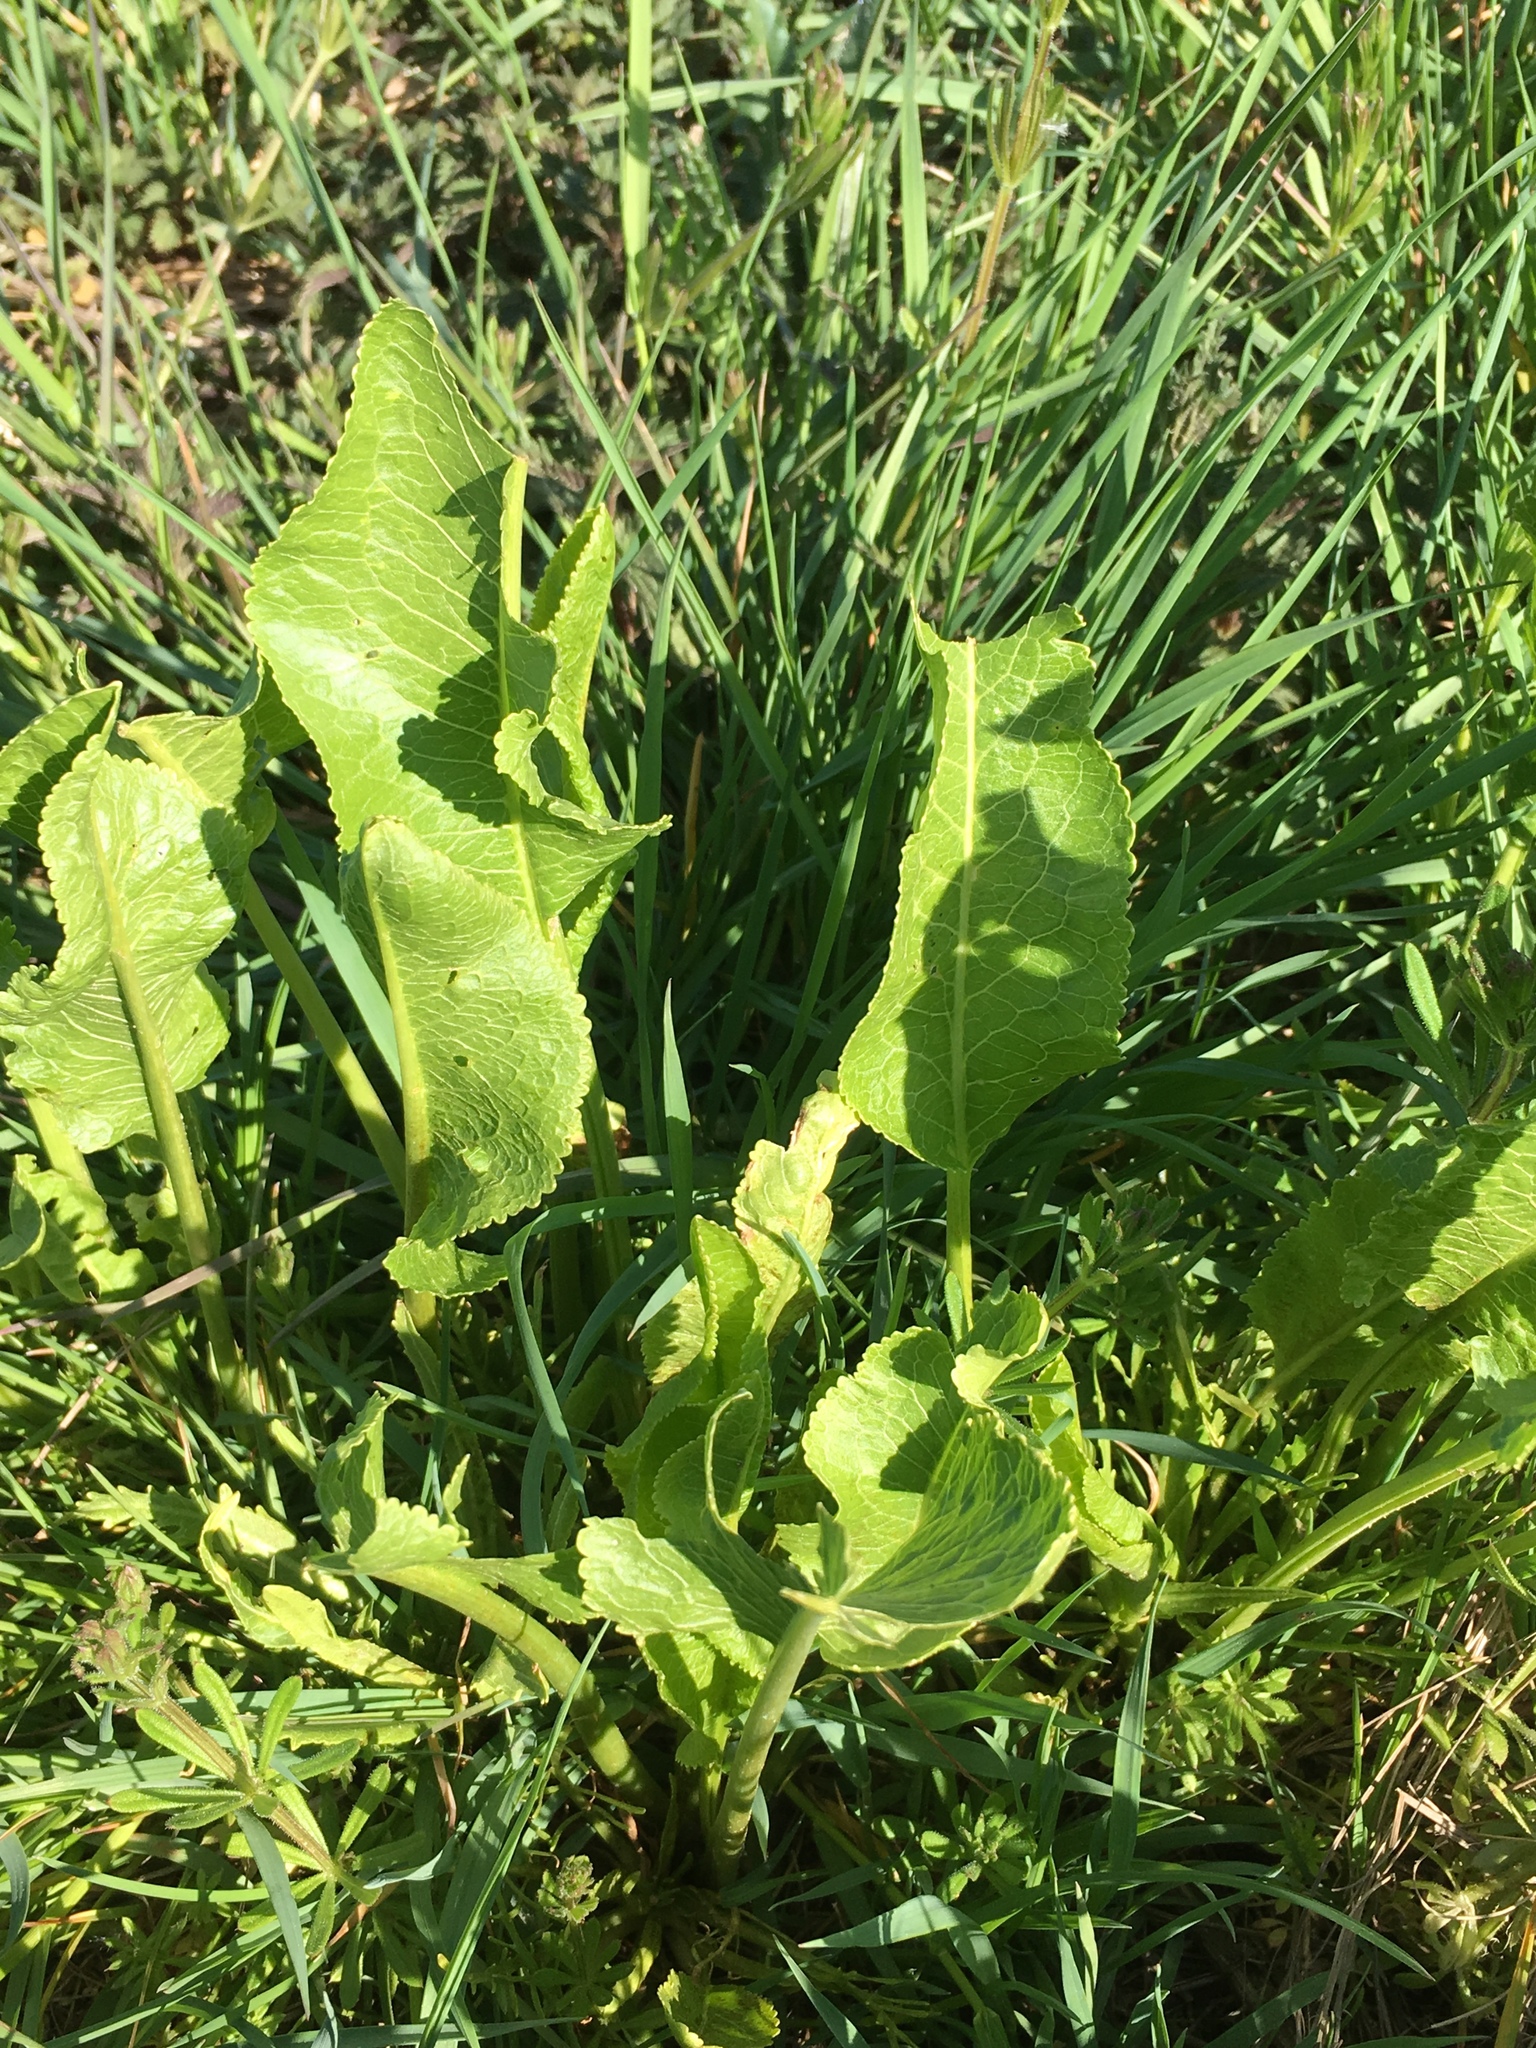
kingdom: Plantae
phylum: Tracheophyta
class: Magnoliopsida
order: Brassicales
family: Brassicaceae
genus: Armoracia
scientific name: Armoracia rusticana
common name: Horseradish
